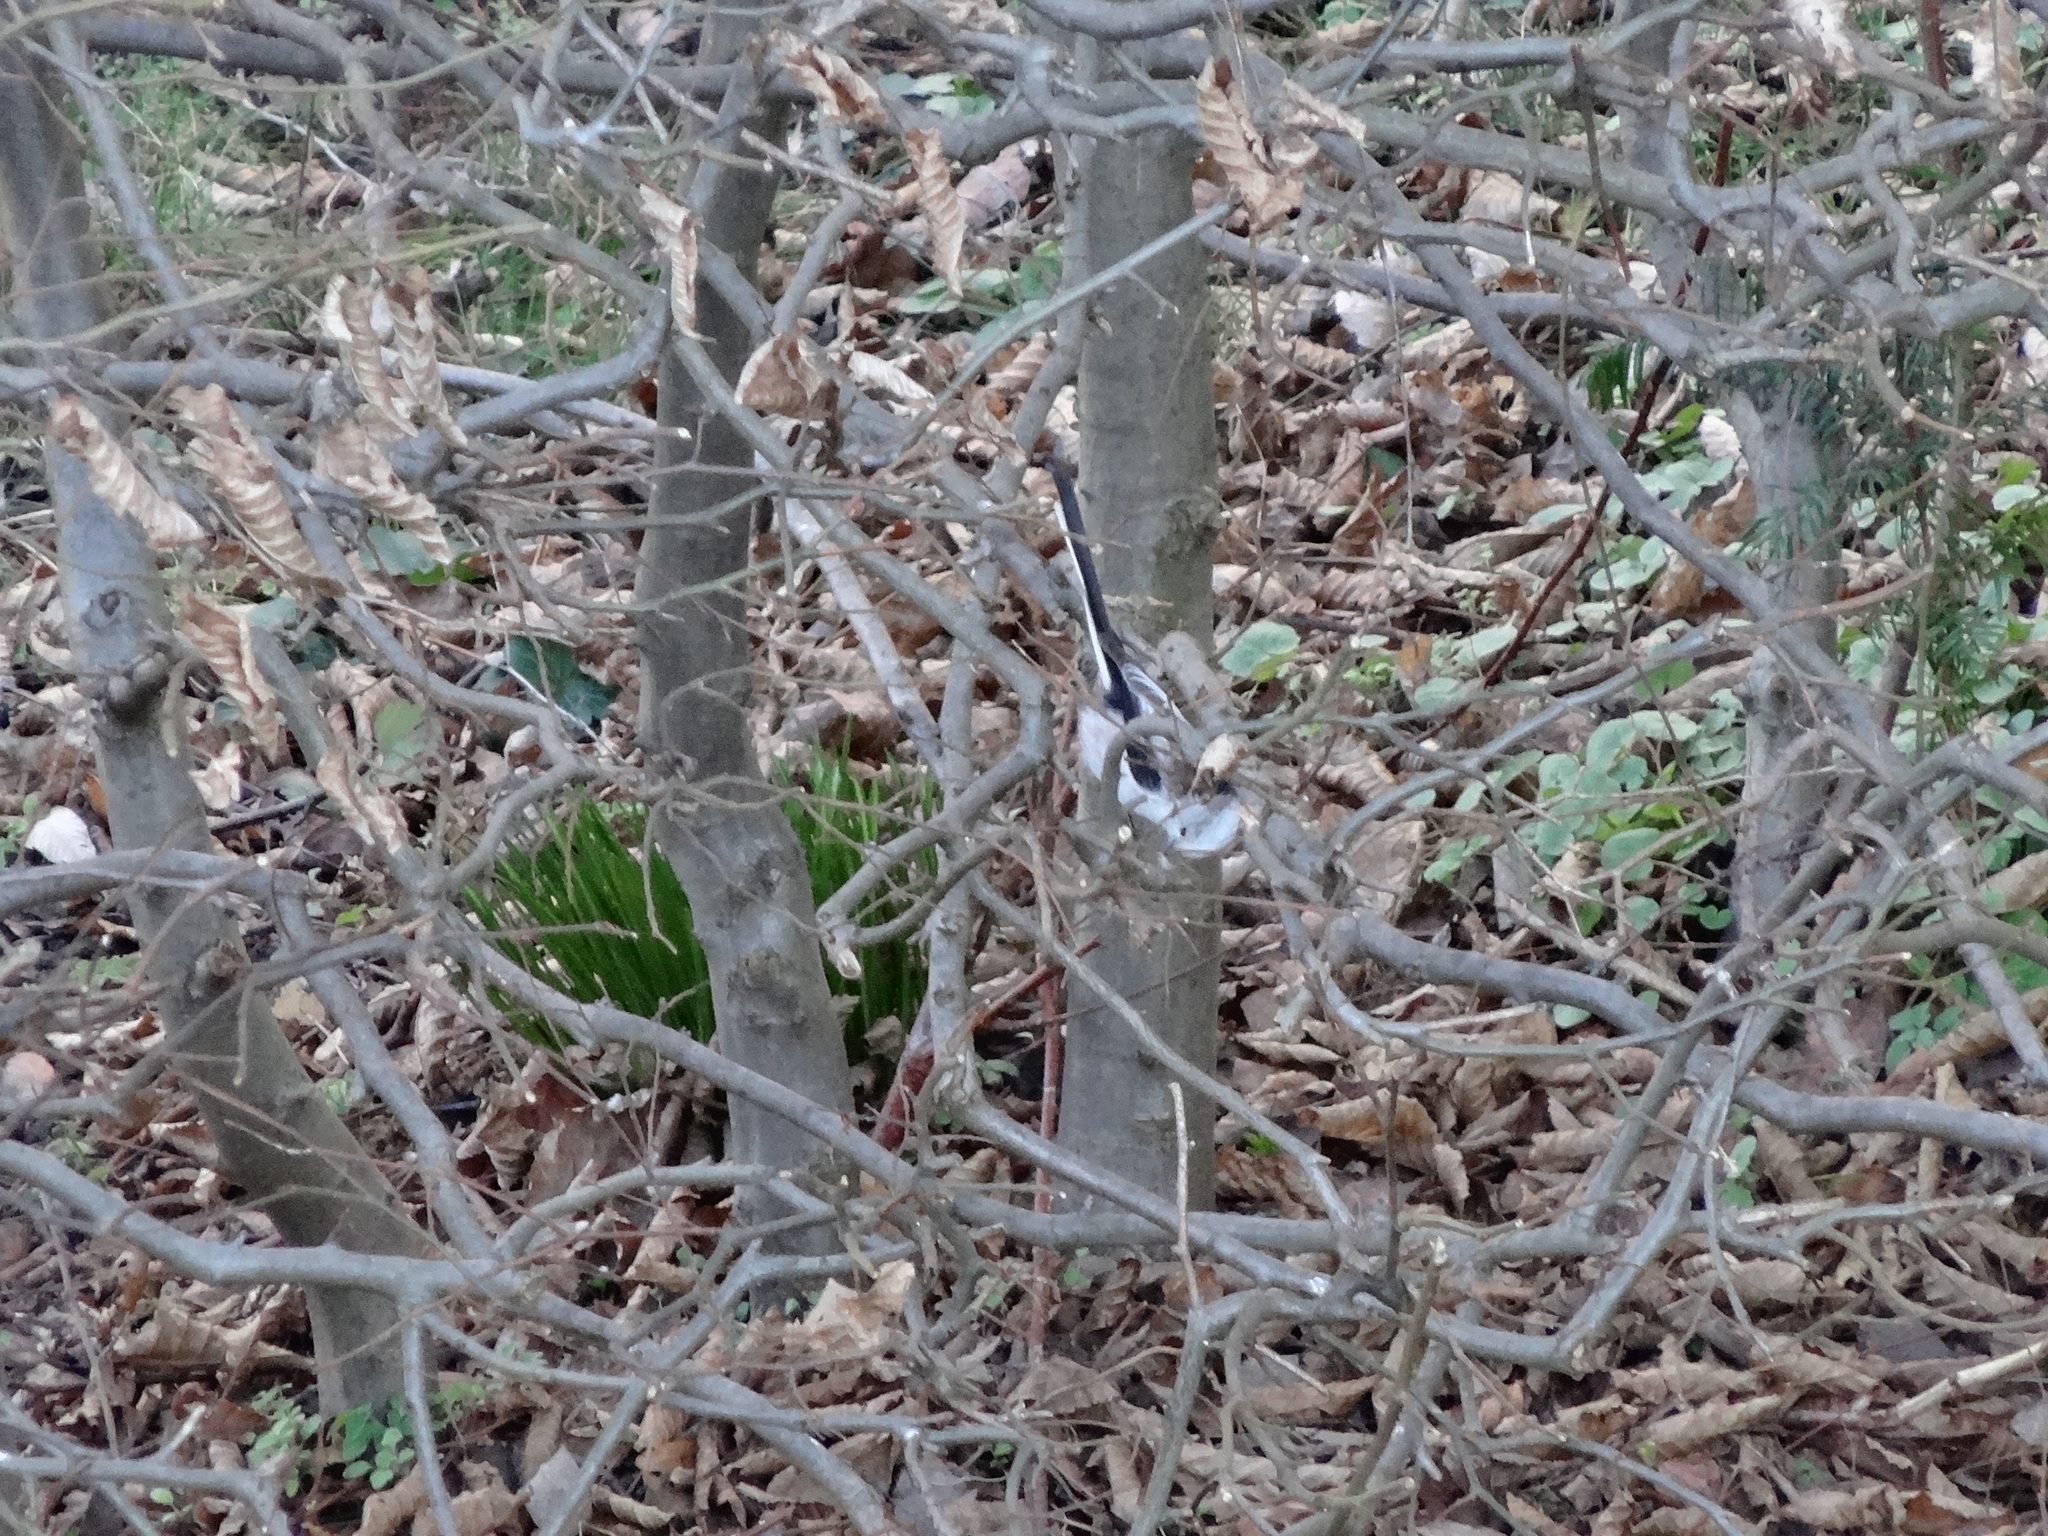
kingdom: Animalia
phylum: Chordata
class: Aves
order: Passeriformes
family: Aegithalidae
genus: Aegithalos
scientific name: Aegithalos caudatus
